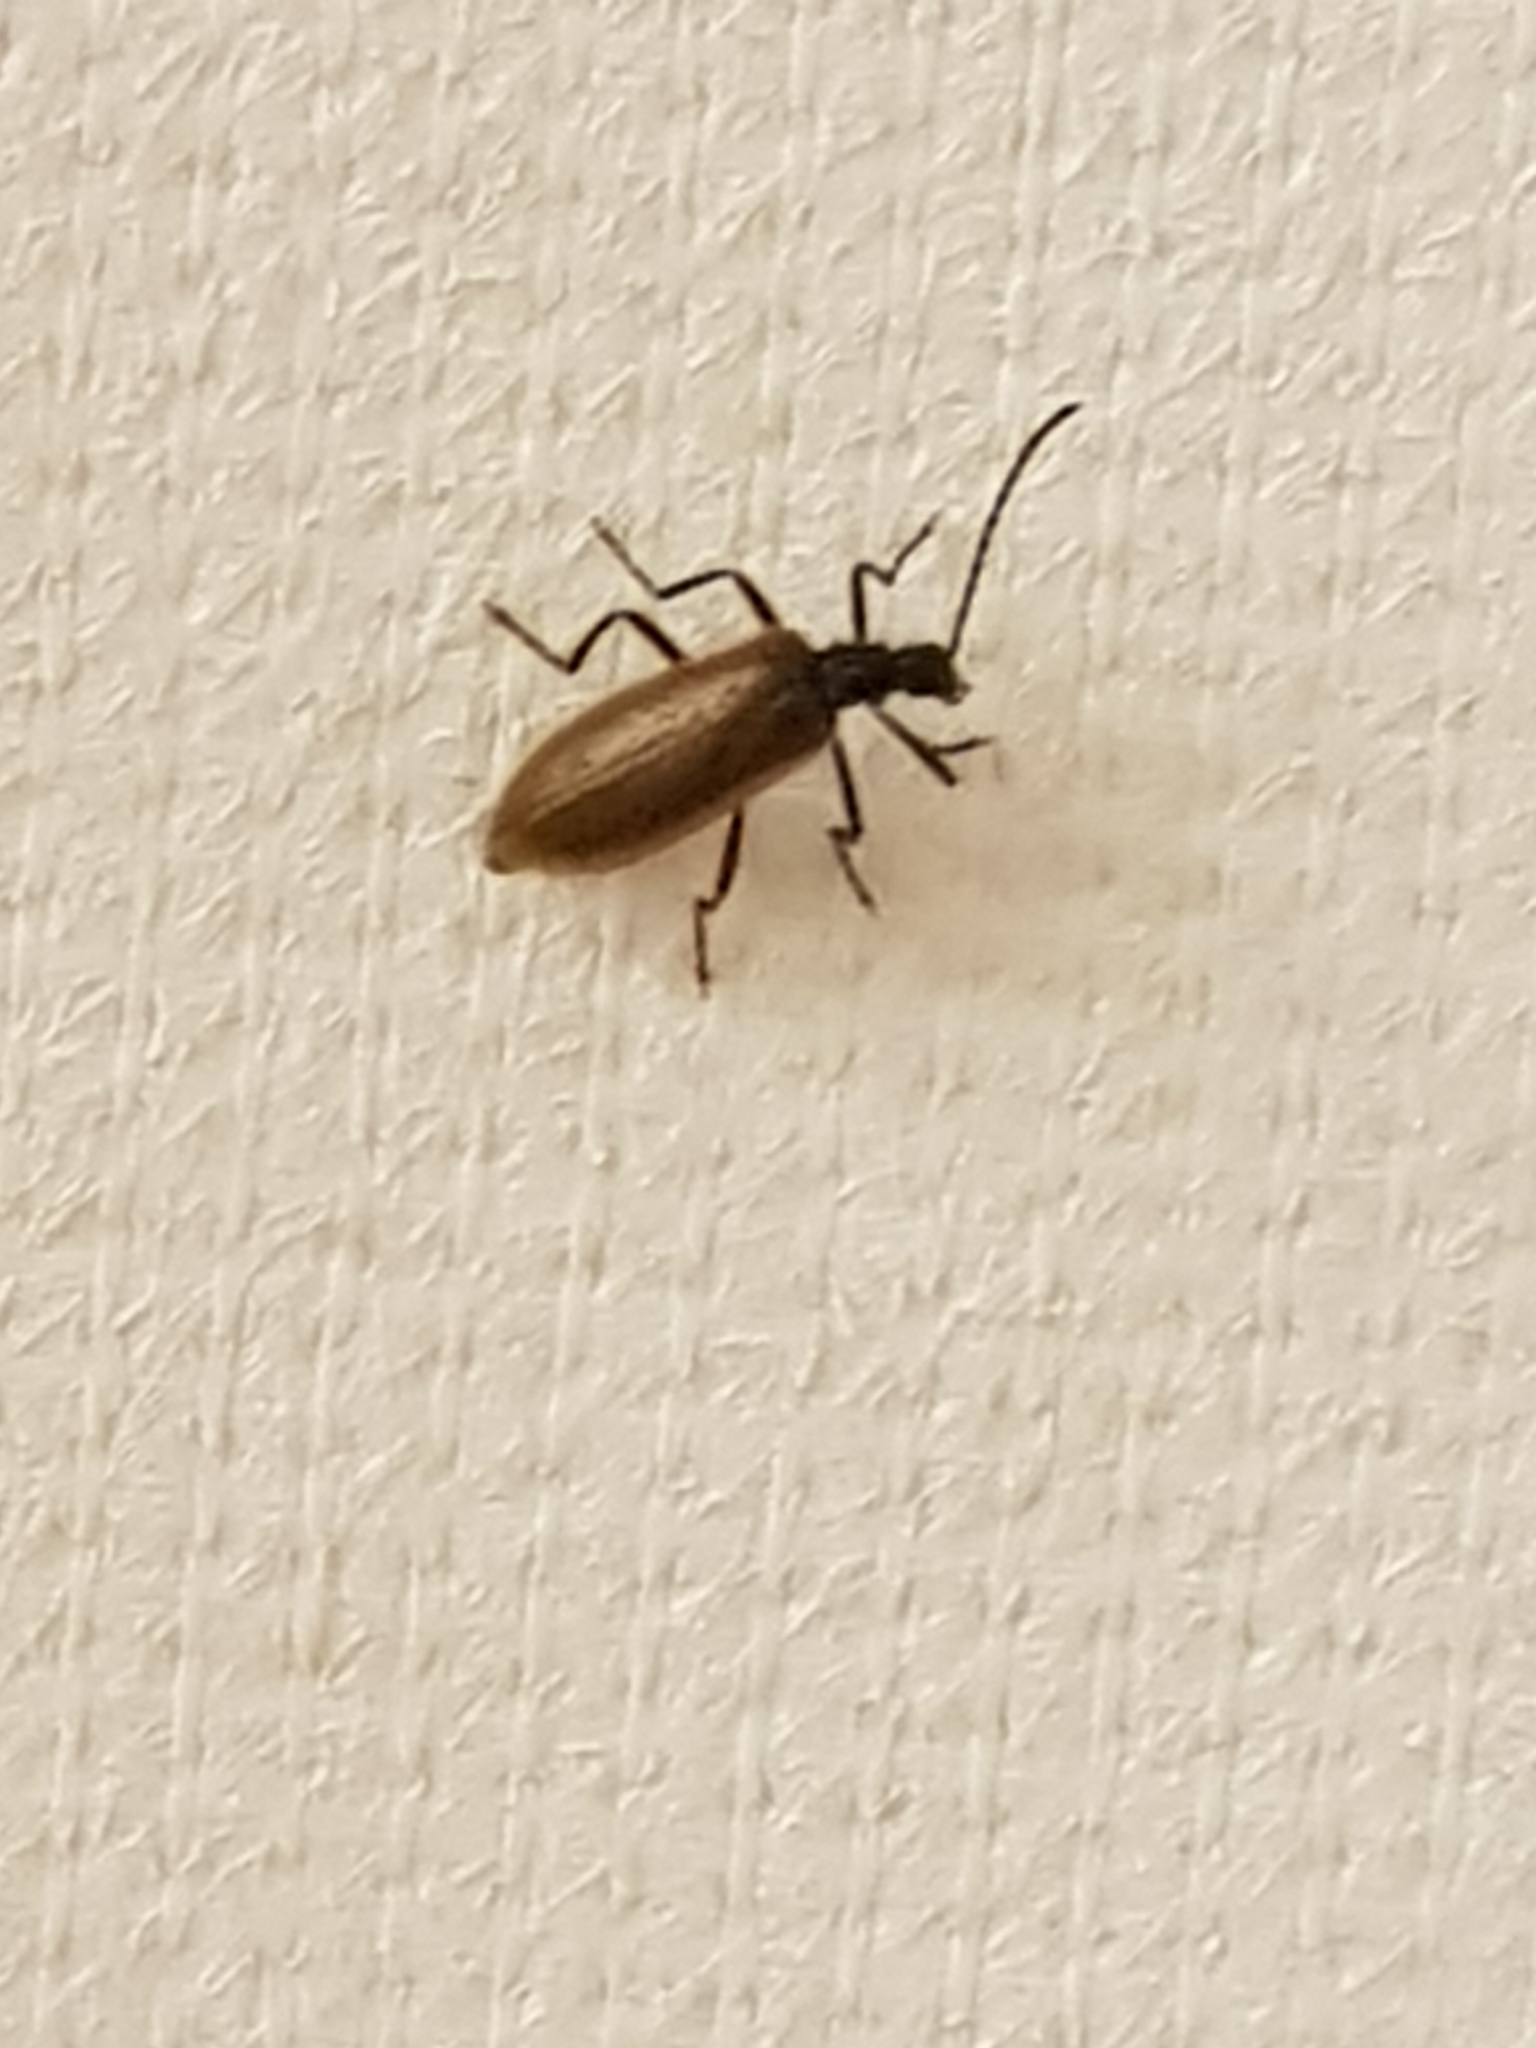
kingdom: Animalia
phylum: Arthropoda
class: Insecta
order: Coleoptera
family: Tenebrionidae
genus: Lagria
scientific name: Lagria hirta
